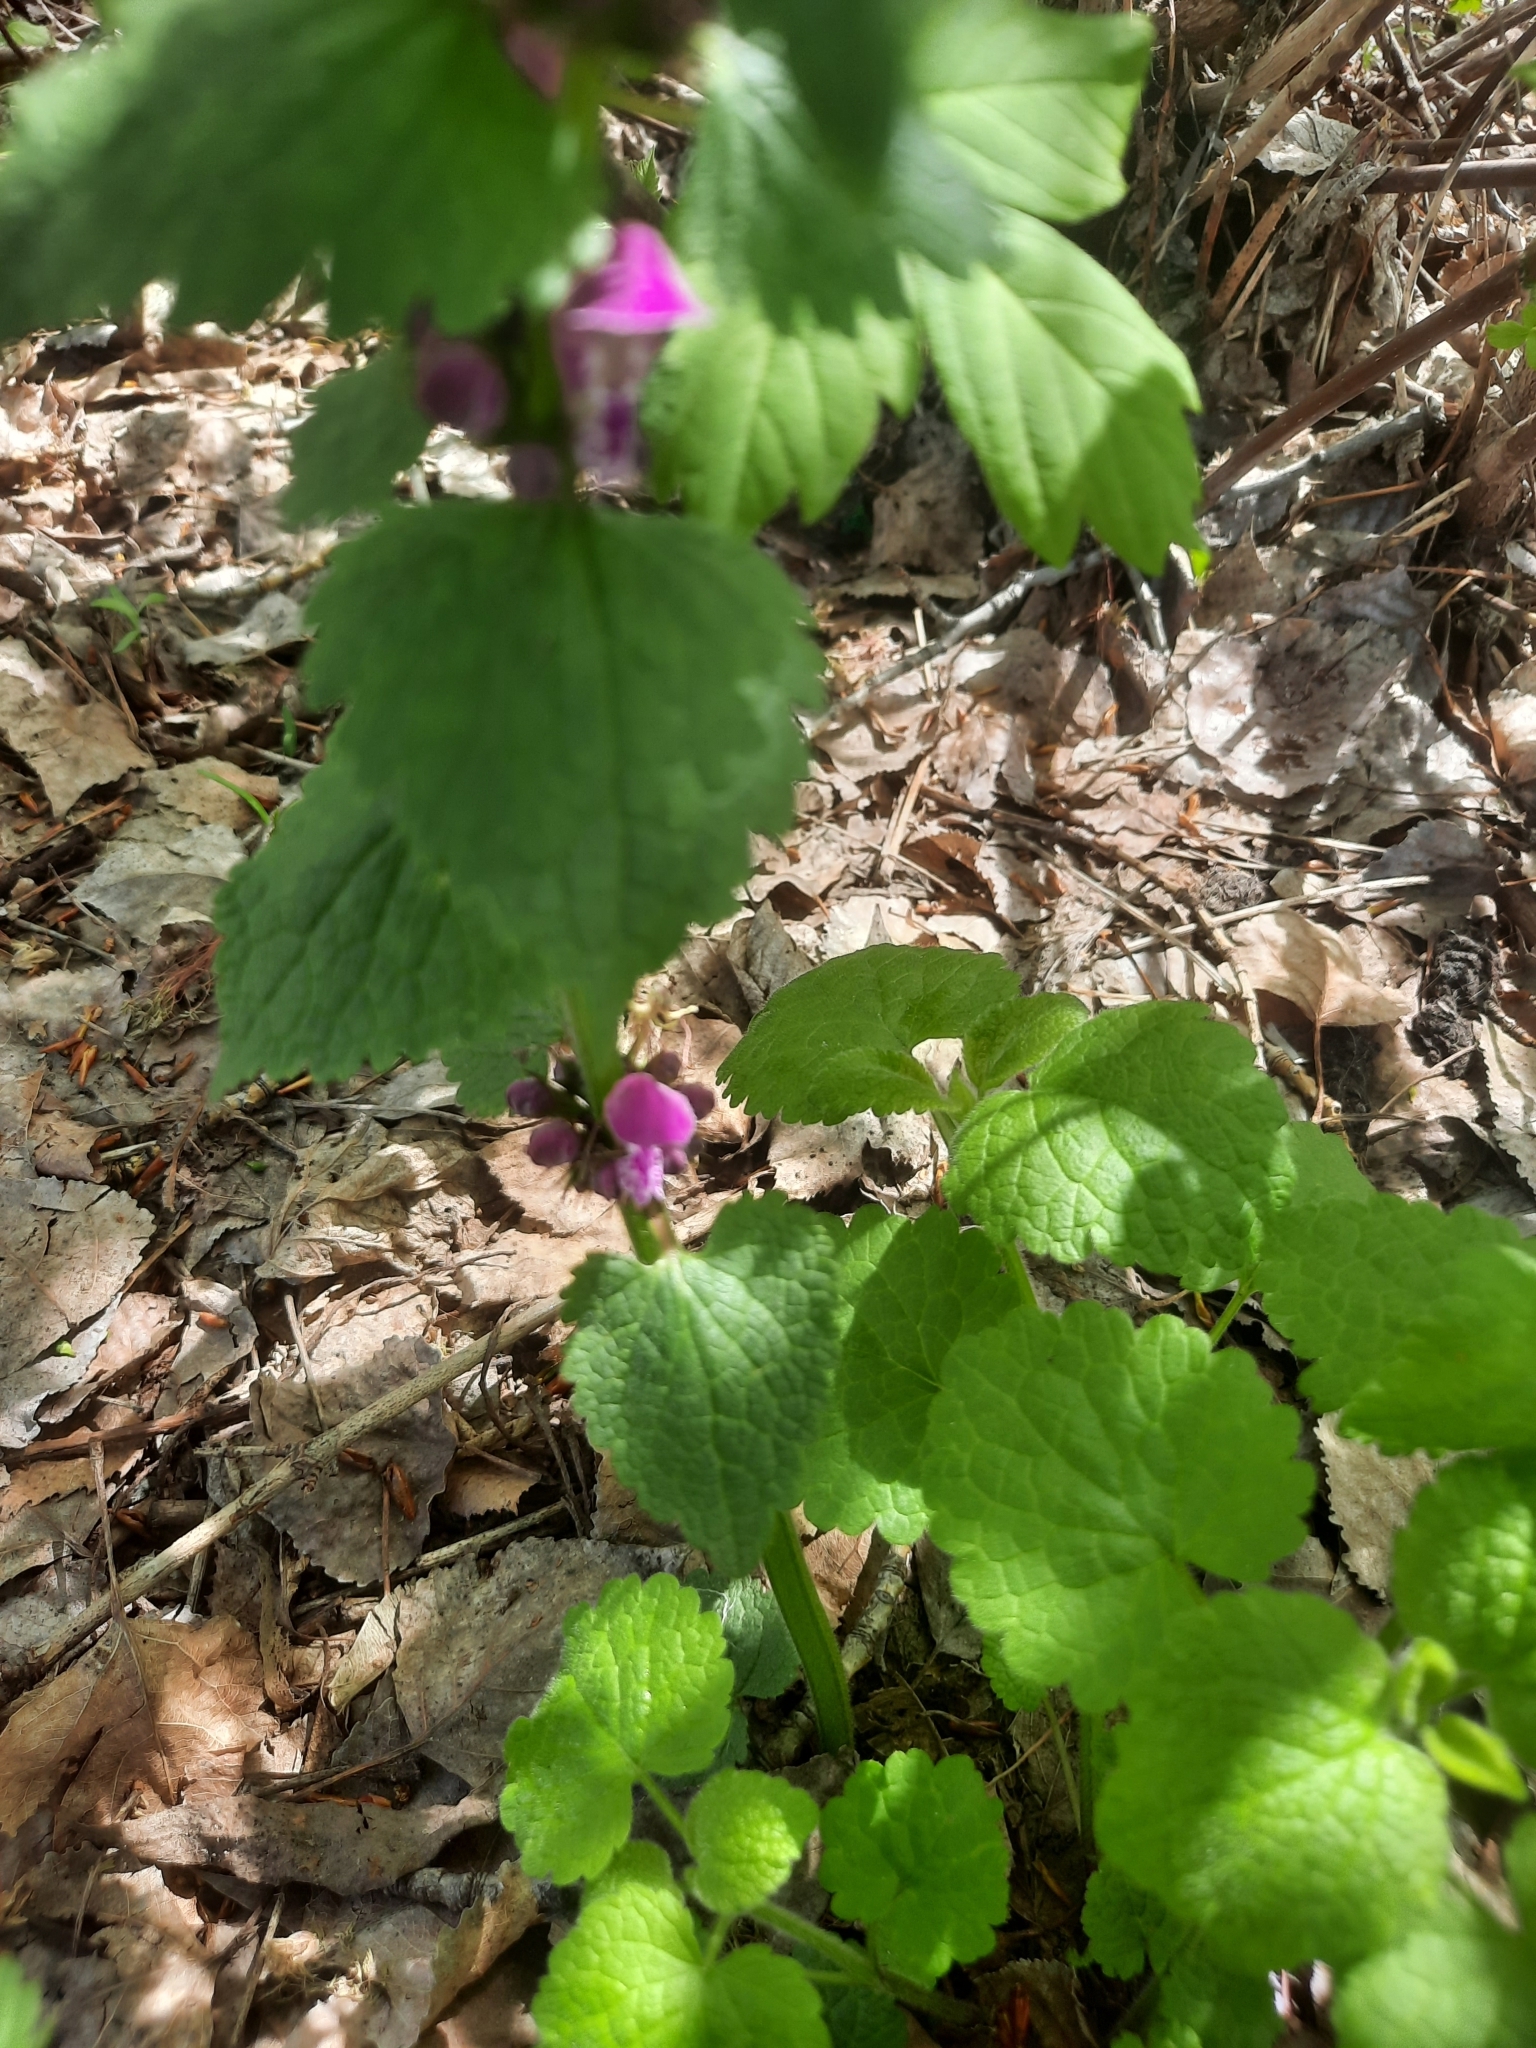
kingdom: Plantae
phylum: Tracheophyta
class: Magnoliopsida
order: Lamiales
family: Lamiaceae
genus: Lamium
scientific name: Lamium maculatum
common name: Spotted dead-nettle
